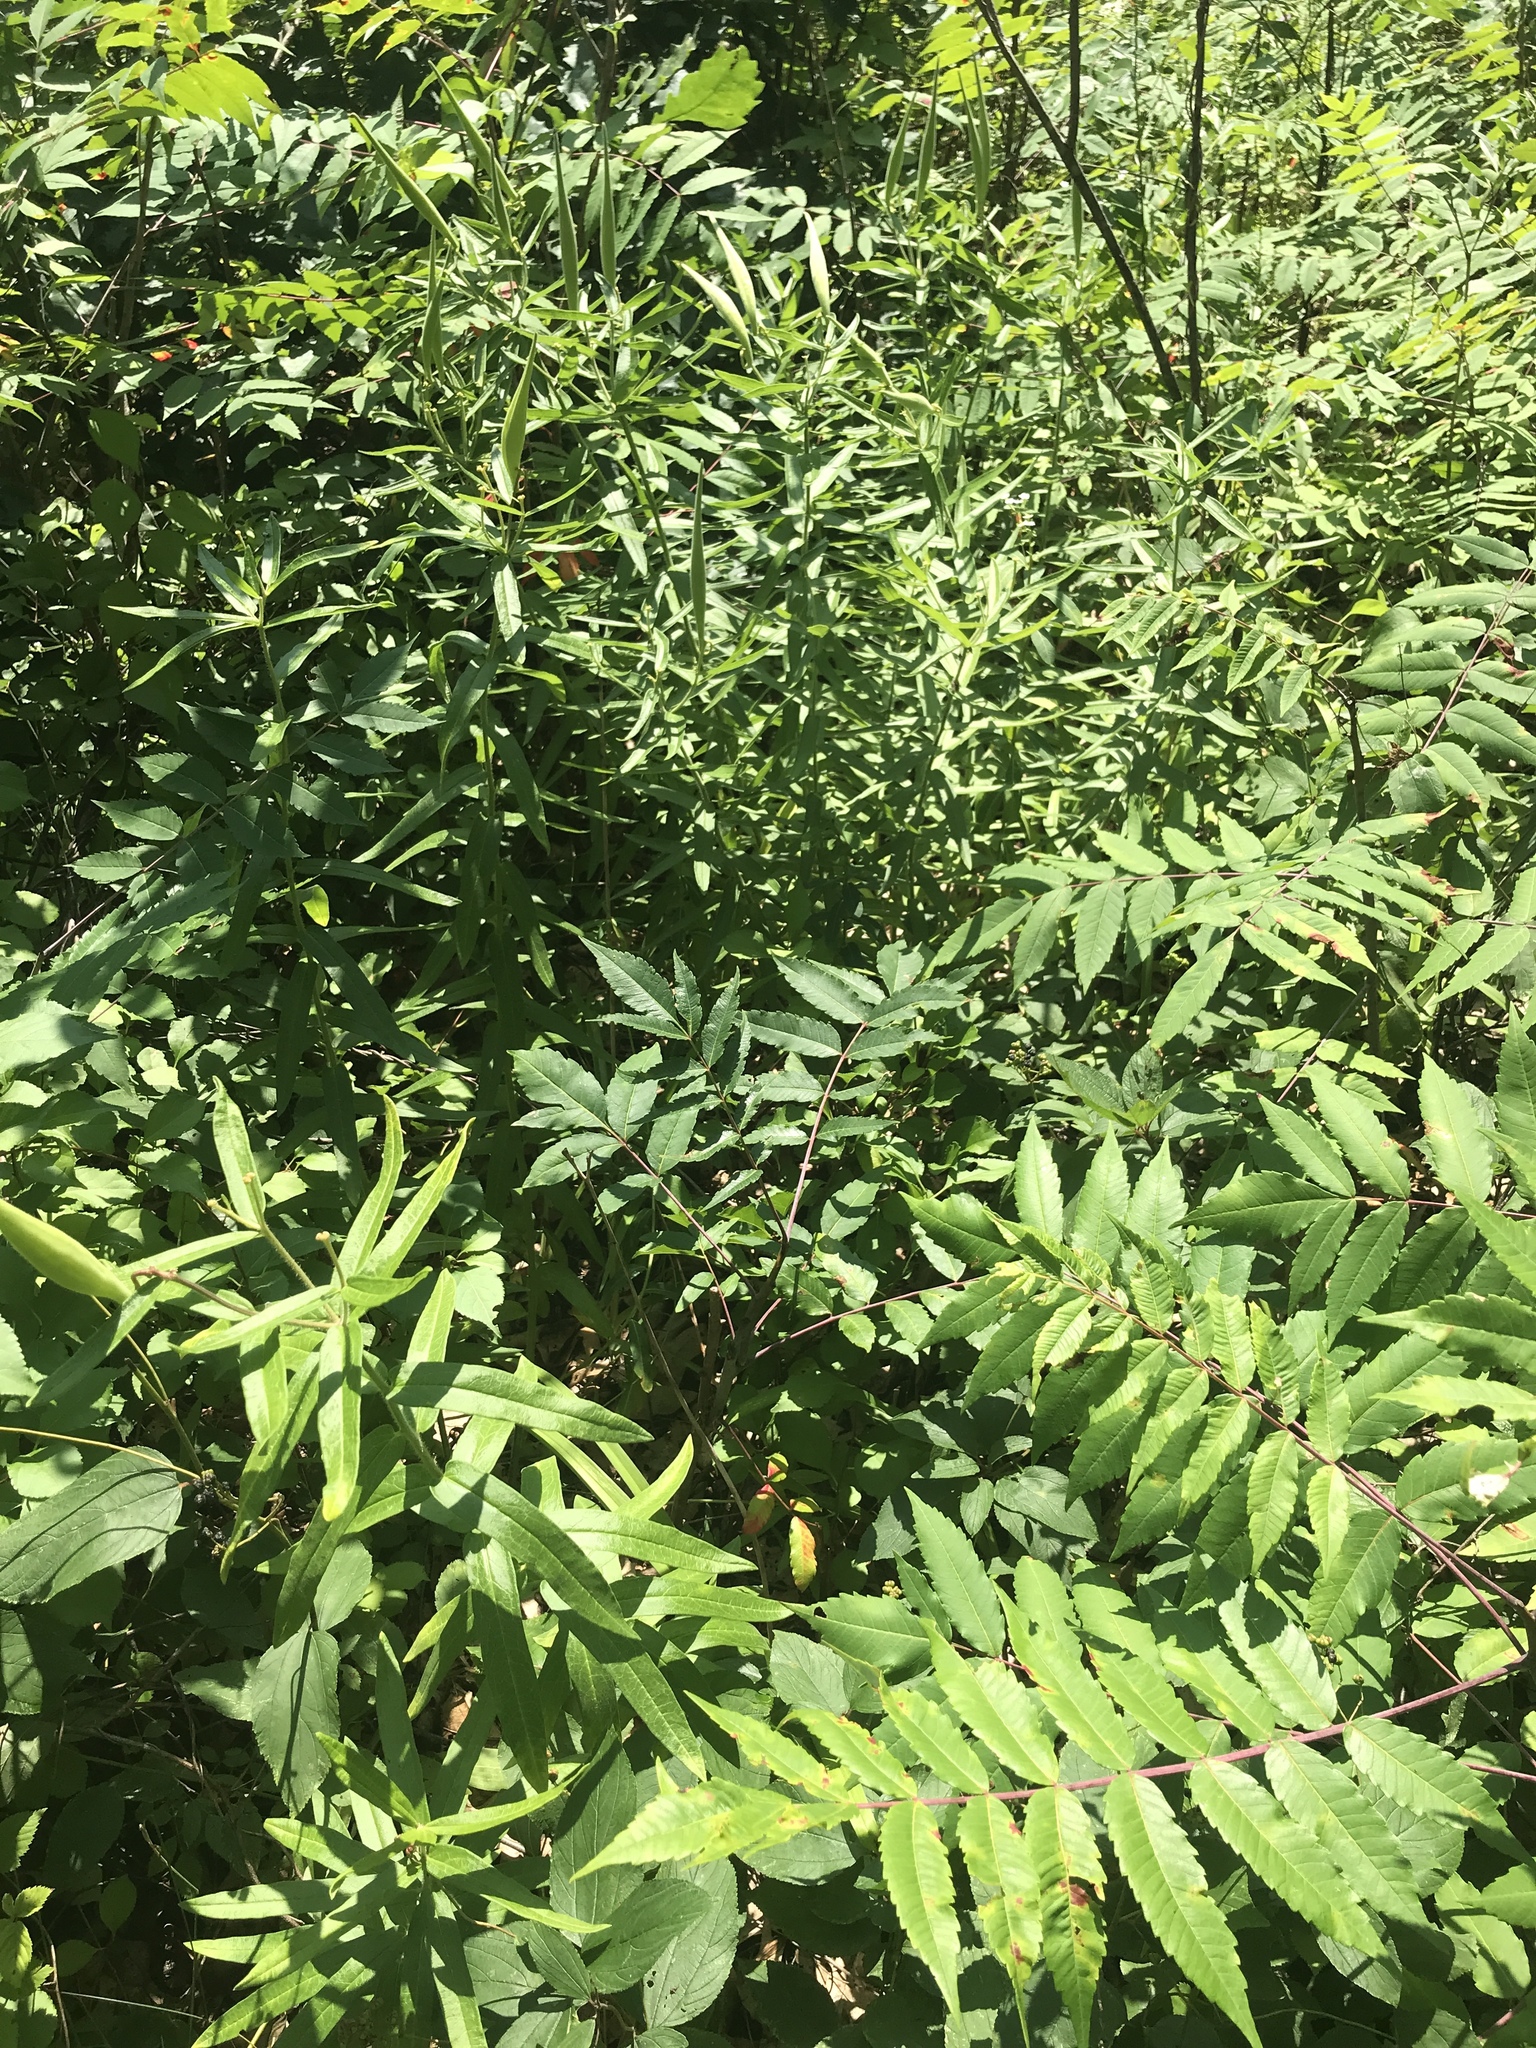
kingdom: Plantae
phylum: Tracheophyta
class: Magnoliopsida
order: Gentianales
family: Apocynaceae
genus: Asclepias
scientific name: Asclepias tuberosa
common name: Butterfly milkweed
